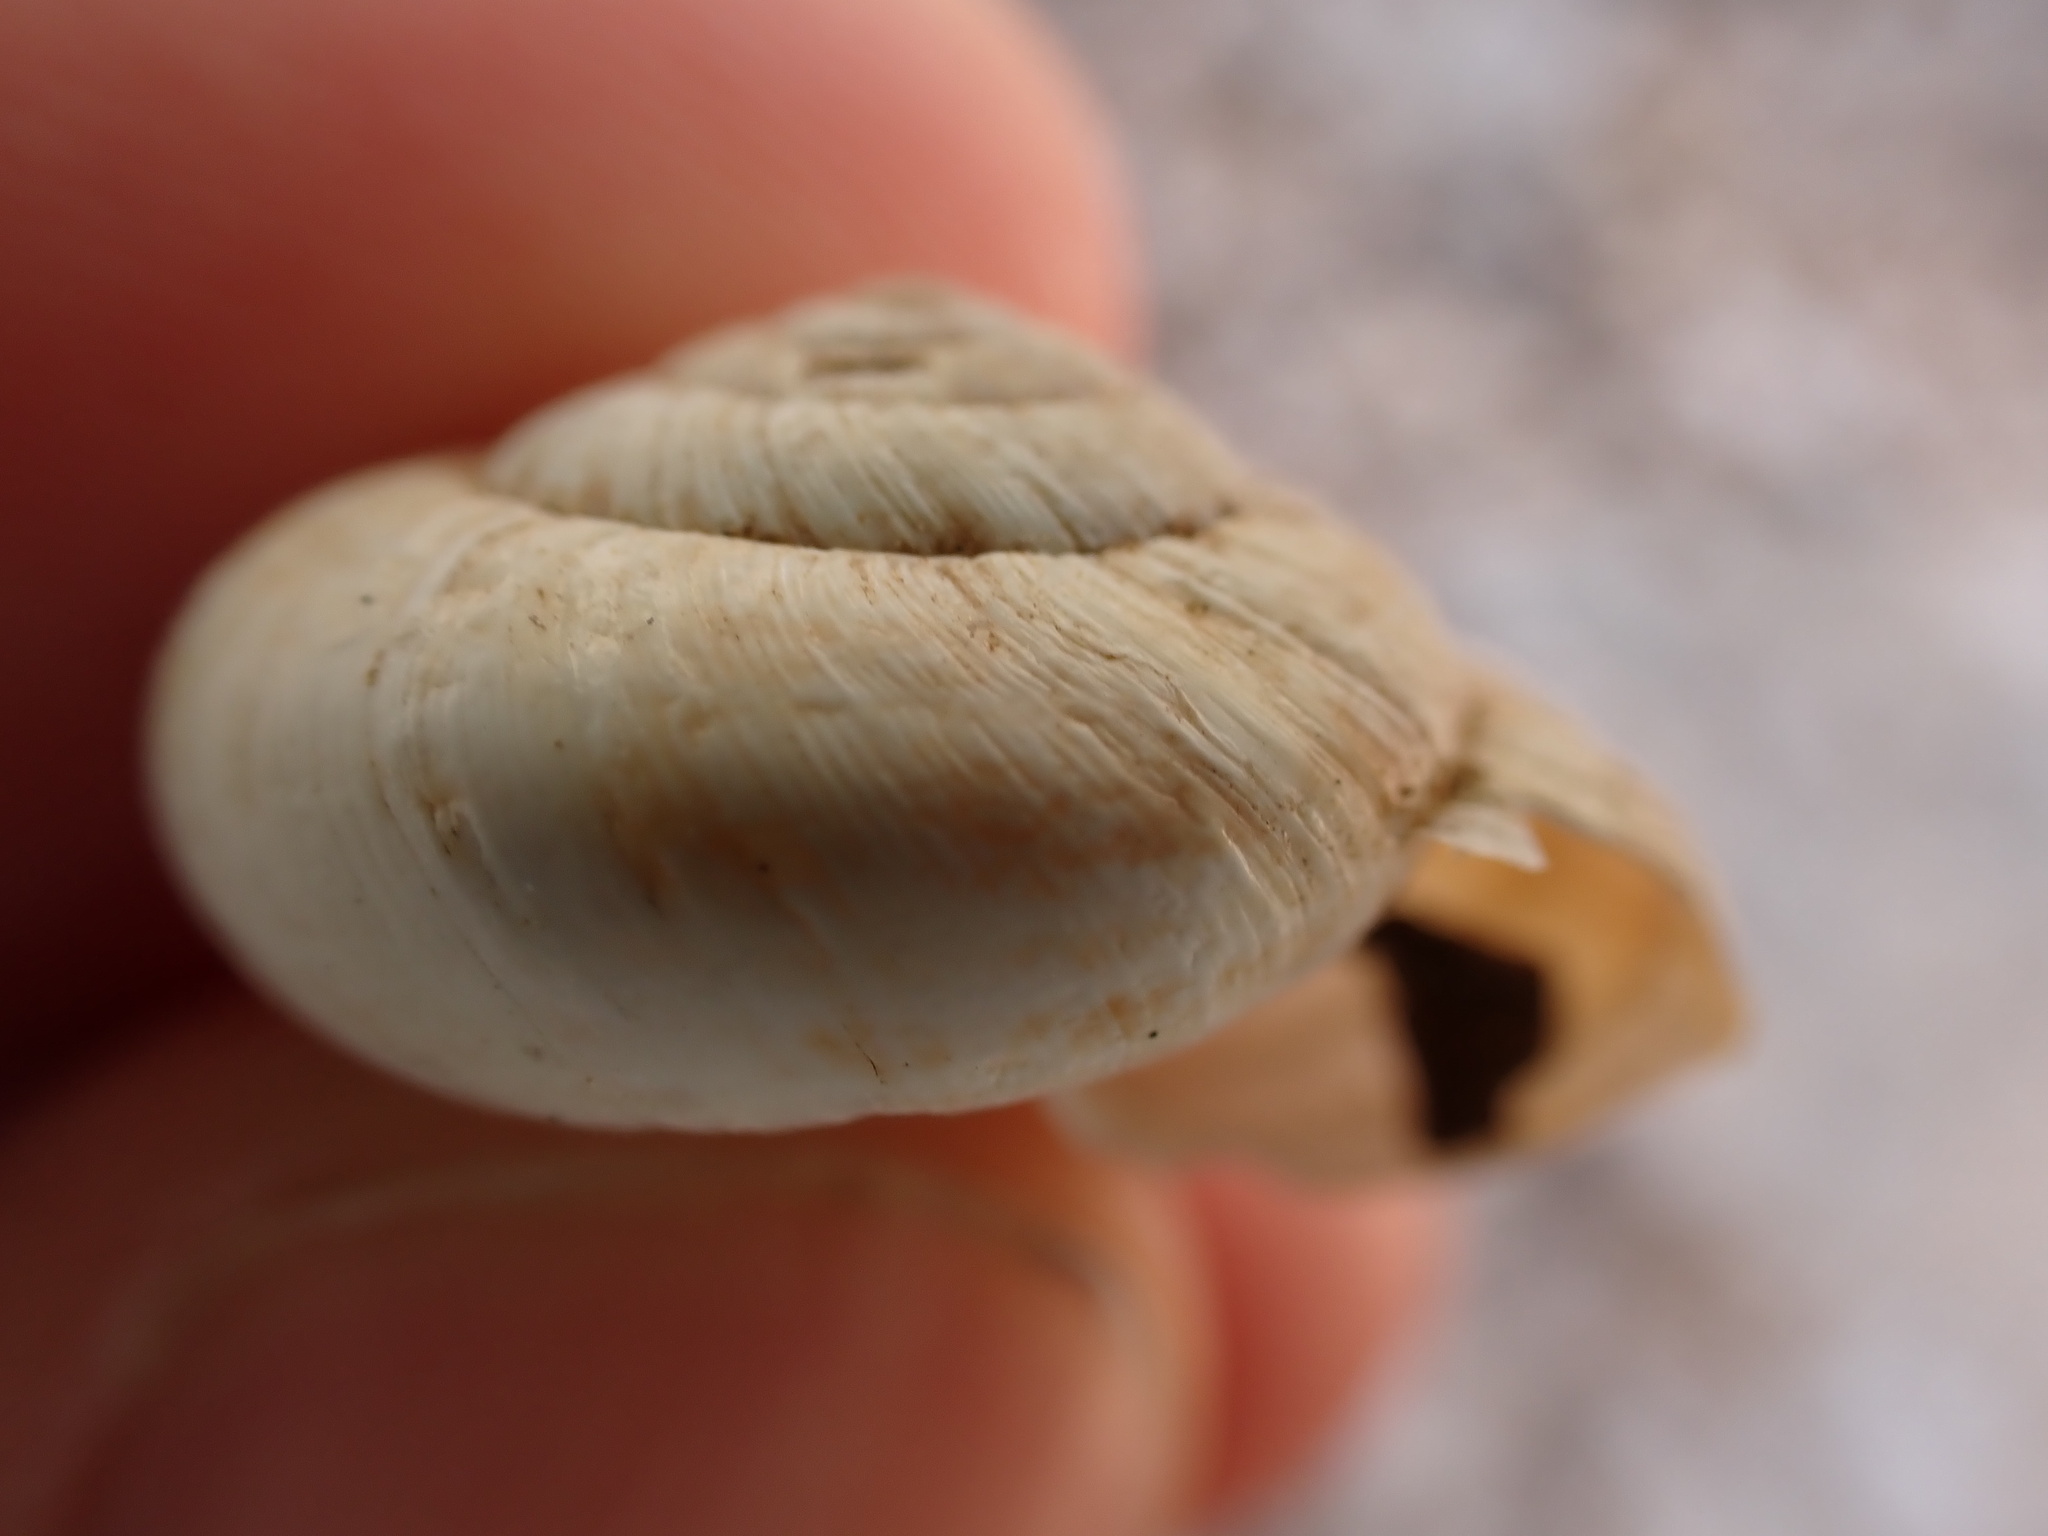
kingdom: Animalia
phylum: Mollusca
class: Gastropoda
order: Stylommatophora
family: Geomitridae
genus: Xerosecta
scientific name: Xerosecta cespitum
